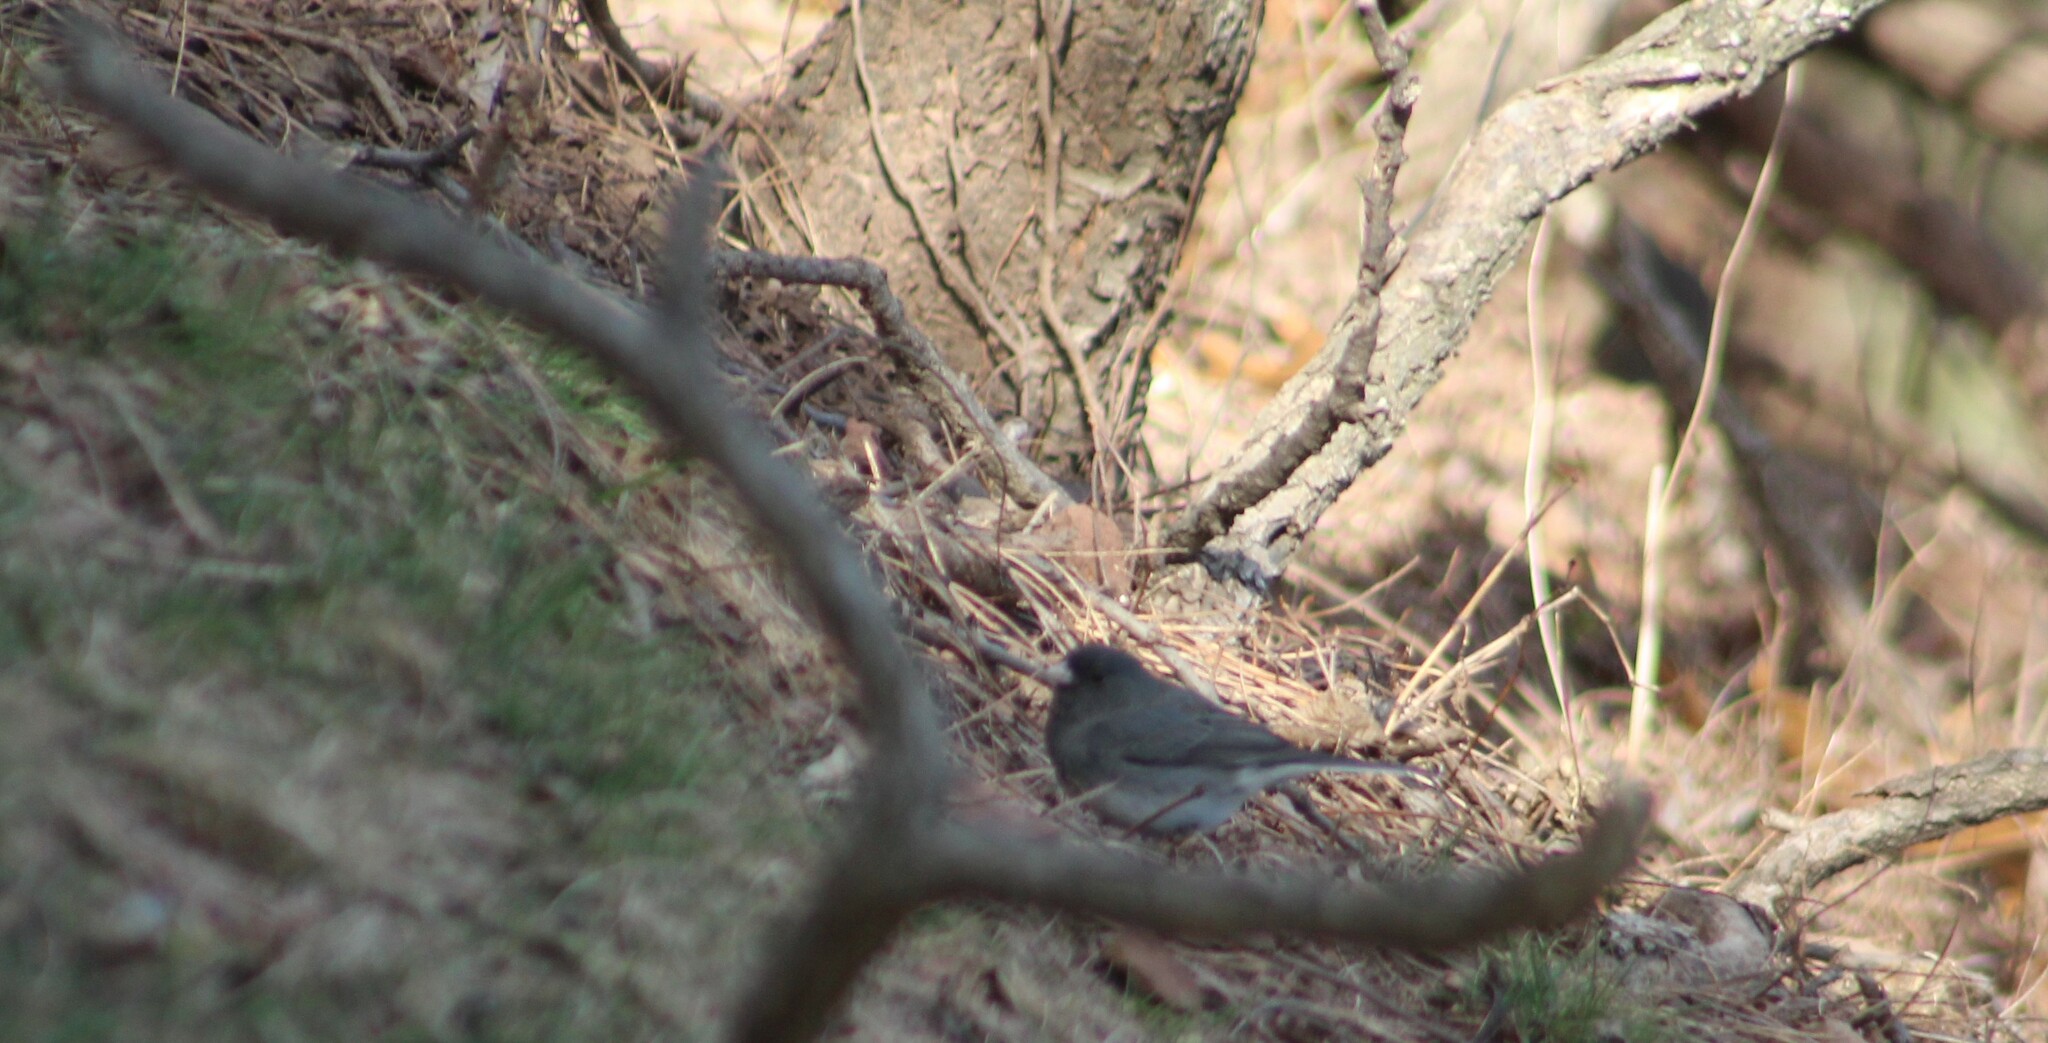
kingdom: Animalia
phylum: Chordata
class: Aves
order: Passeriformes
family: Passerellidae
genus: Junco
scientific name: Junco hyemalis
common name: Dark-eyed junco
